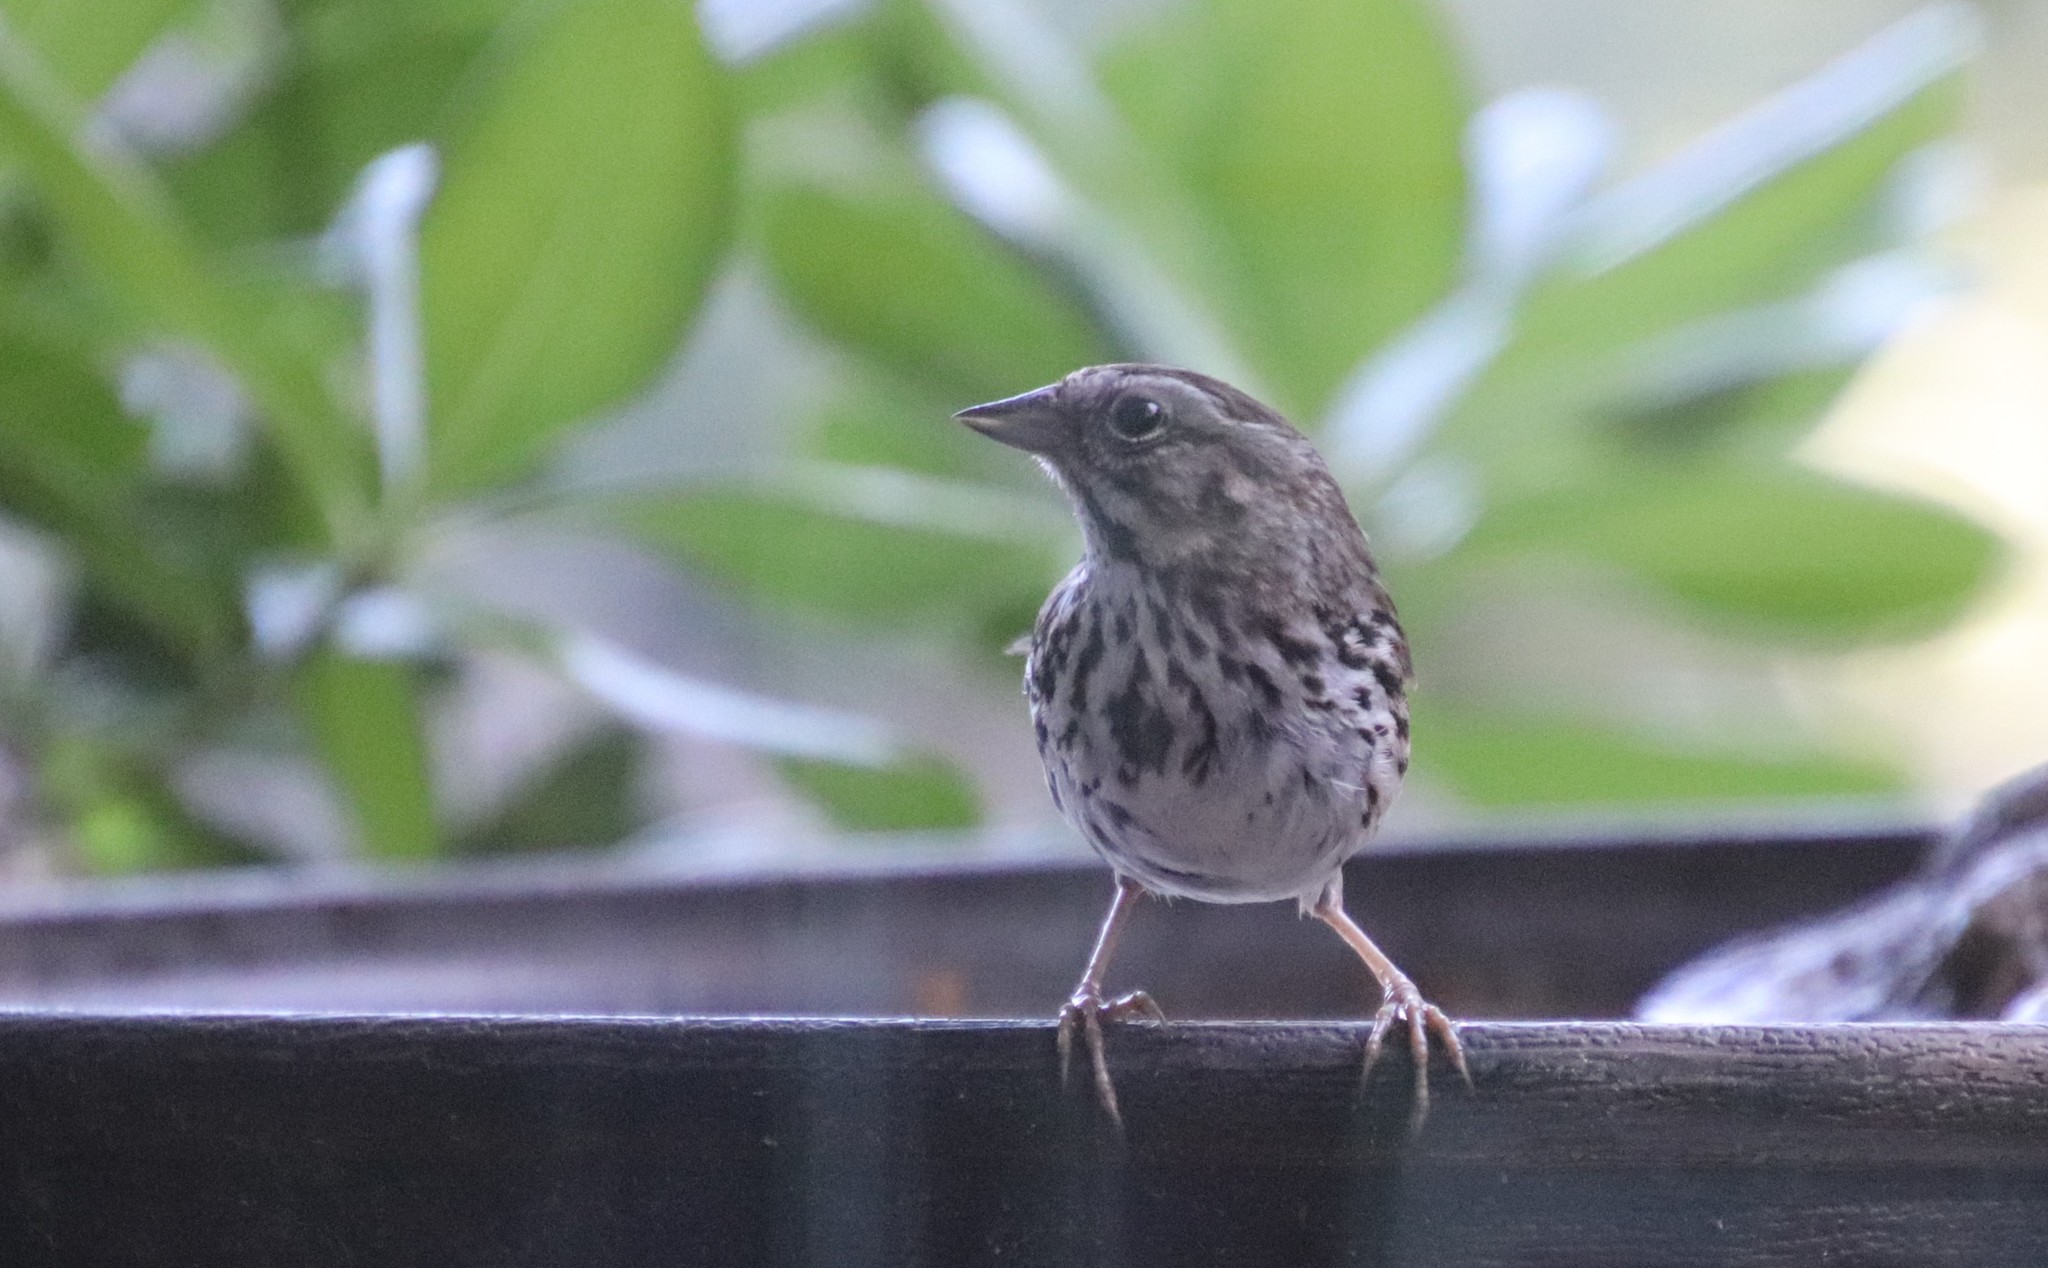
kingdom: Animalia
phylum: Chordata
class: Aves
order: Passeriformes
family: Passerellidae
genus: Melospiza
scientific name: Melospiza melodia
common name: Song sparrow
